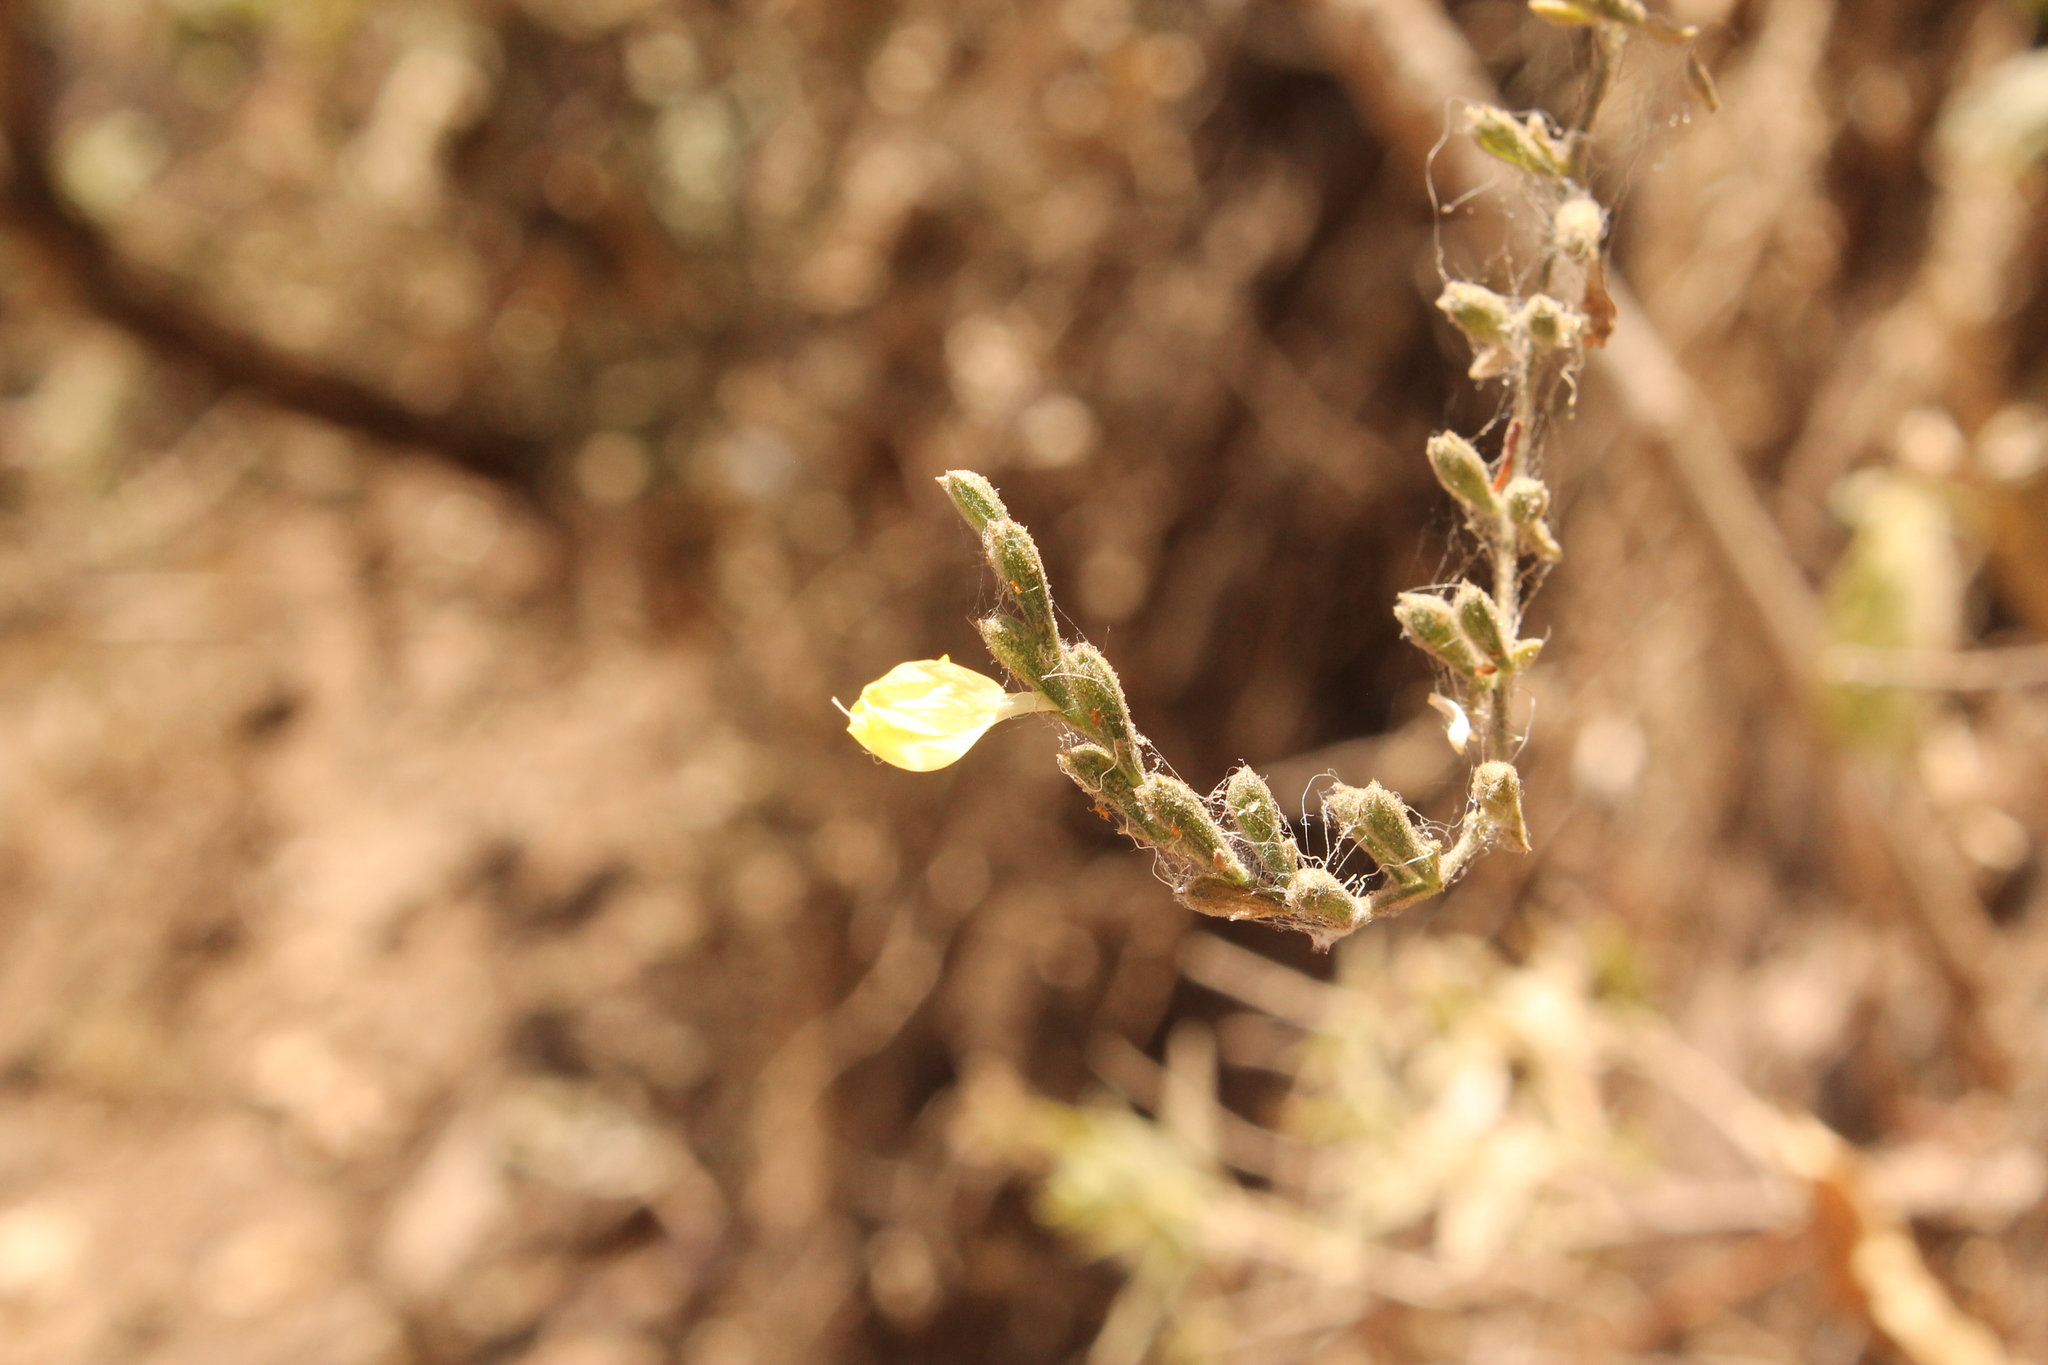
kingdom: Plantae
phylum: Tracheophyta
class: Magnoliopsida
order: Lamiales
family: Acanthaceae
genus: Henrya
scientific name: Henrya insularis
